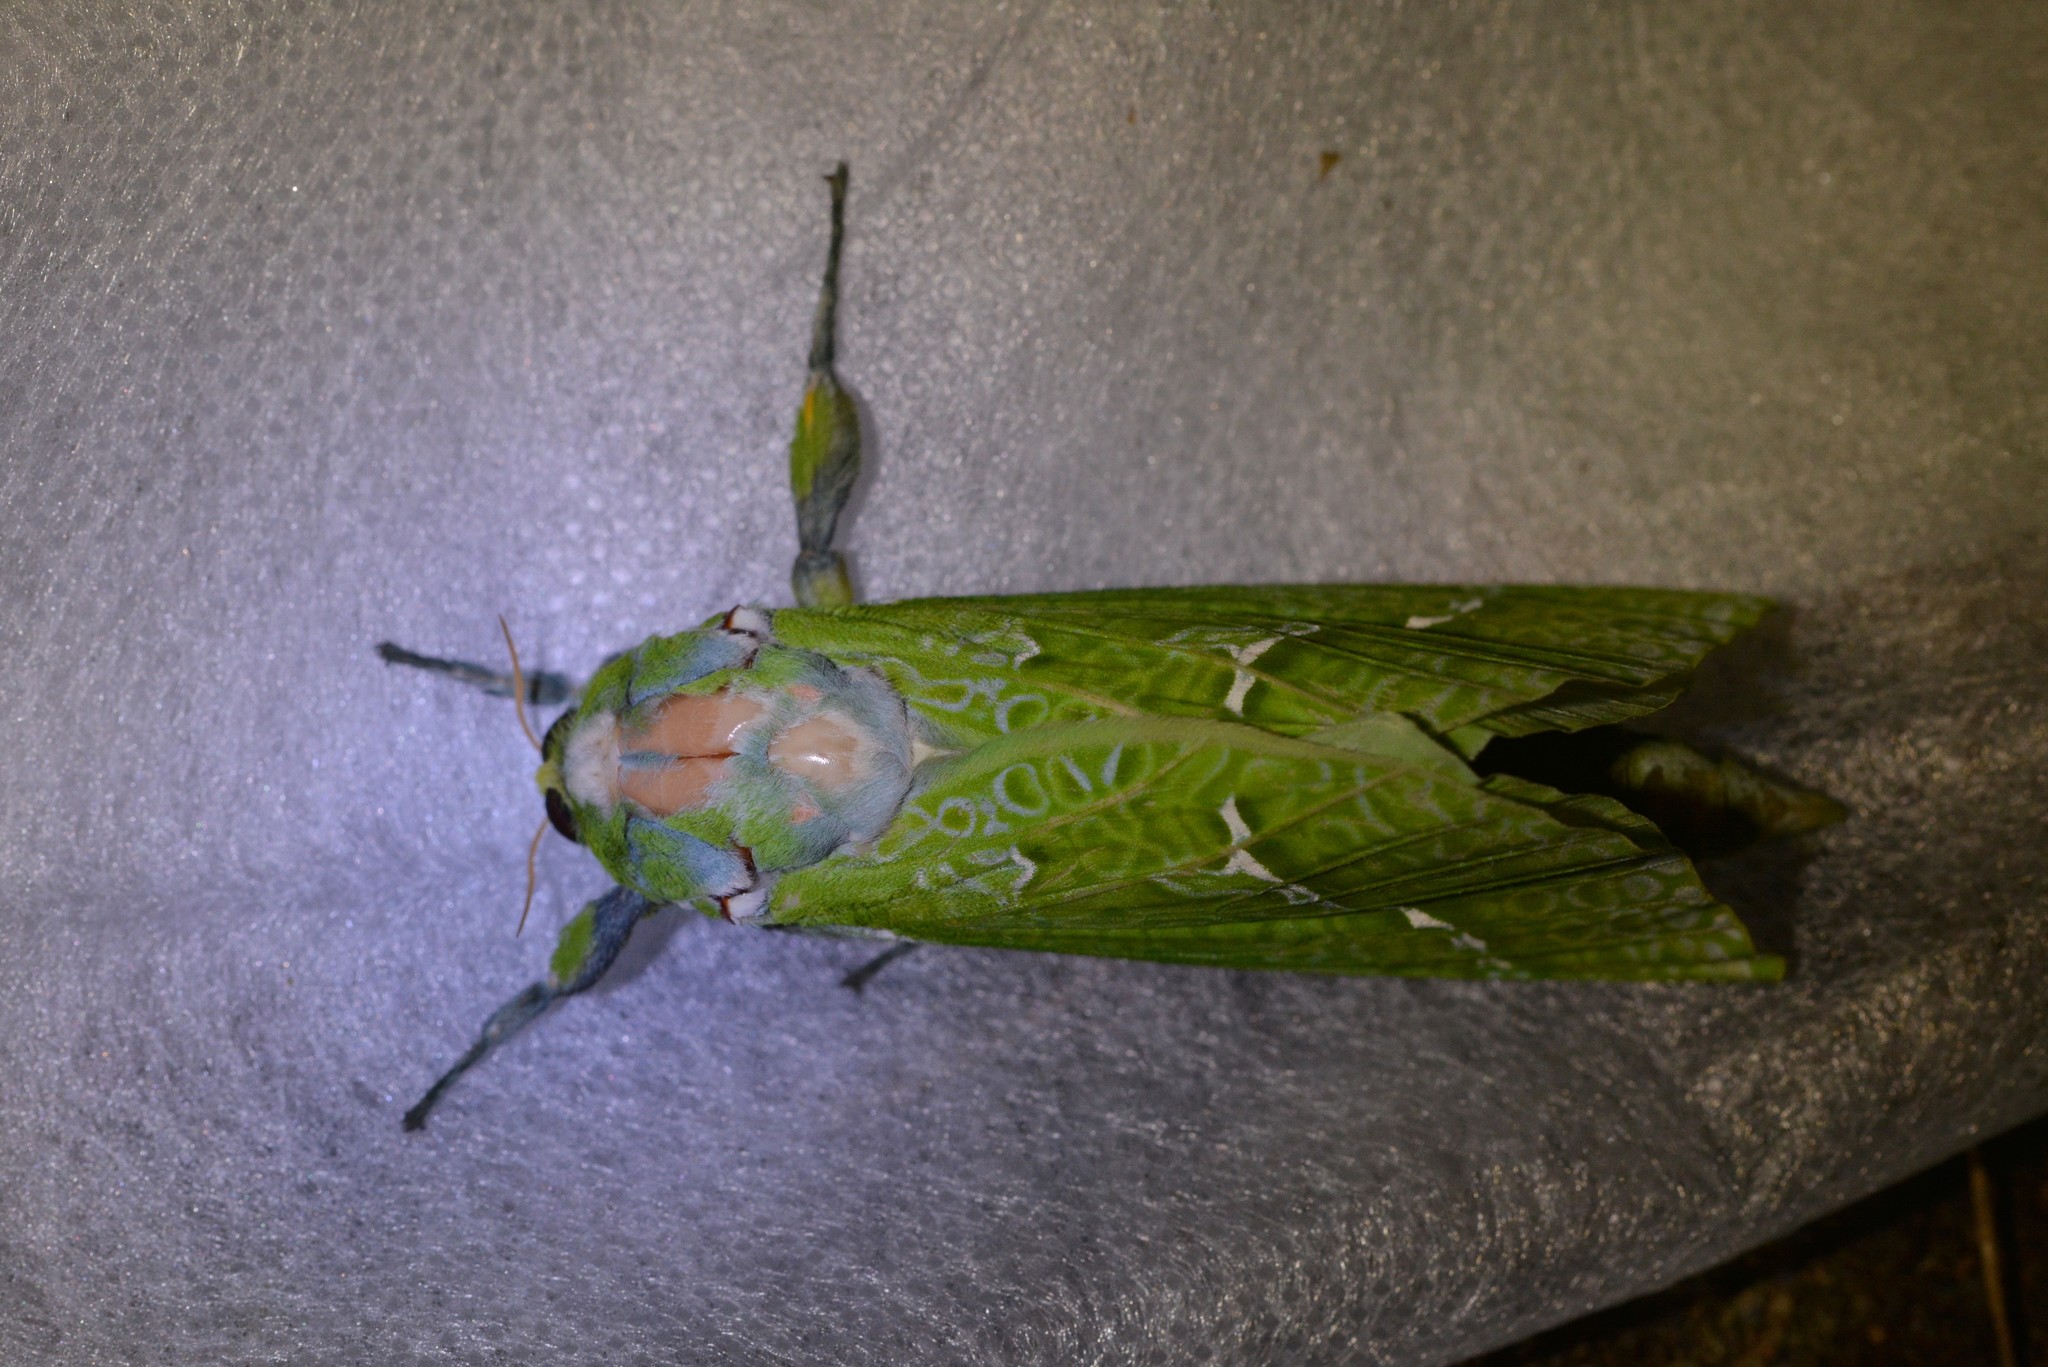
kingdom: Animalia
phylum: Arthropoda
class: Insecta
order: Lepidoptera
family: Hepialidae
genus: Aenetus
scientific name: Aenetus virescens
